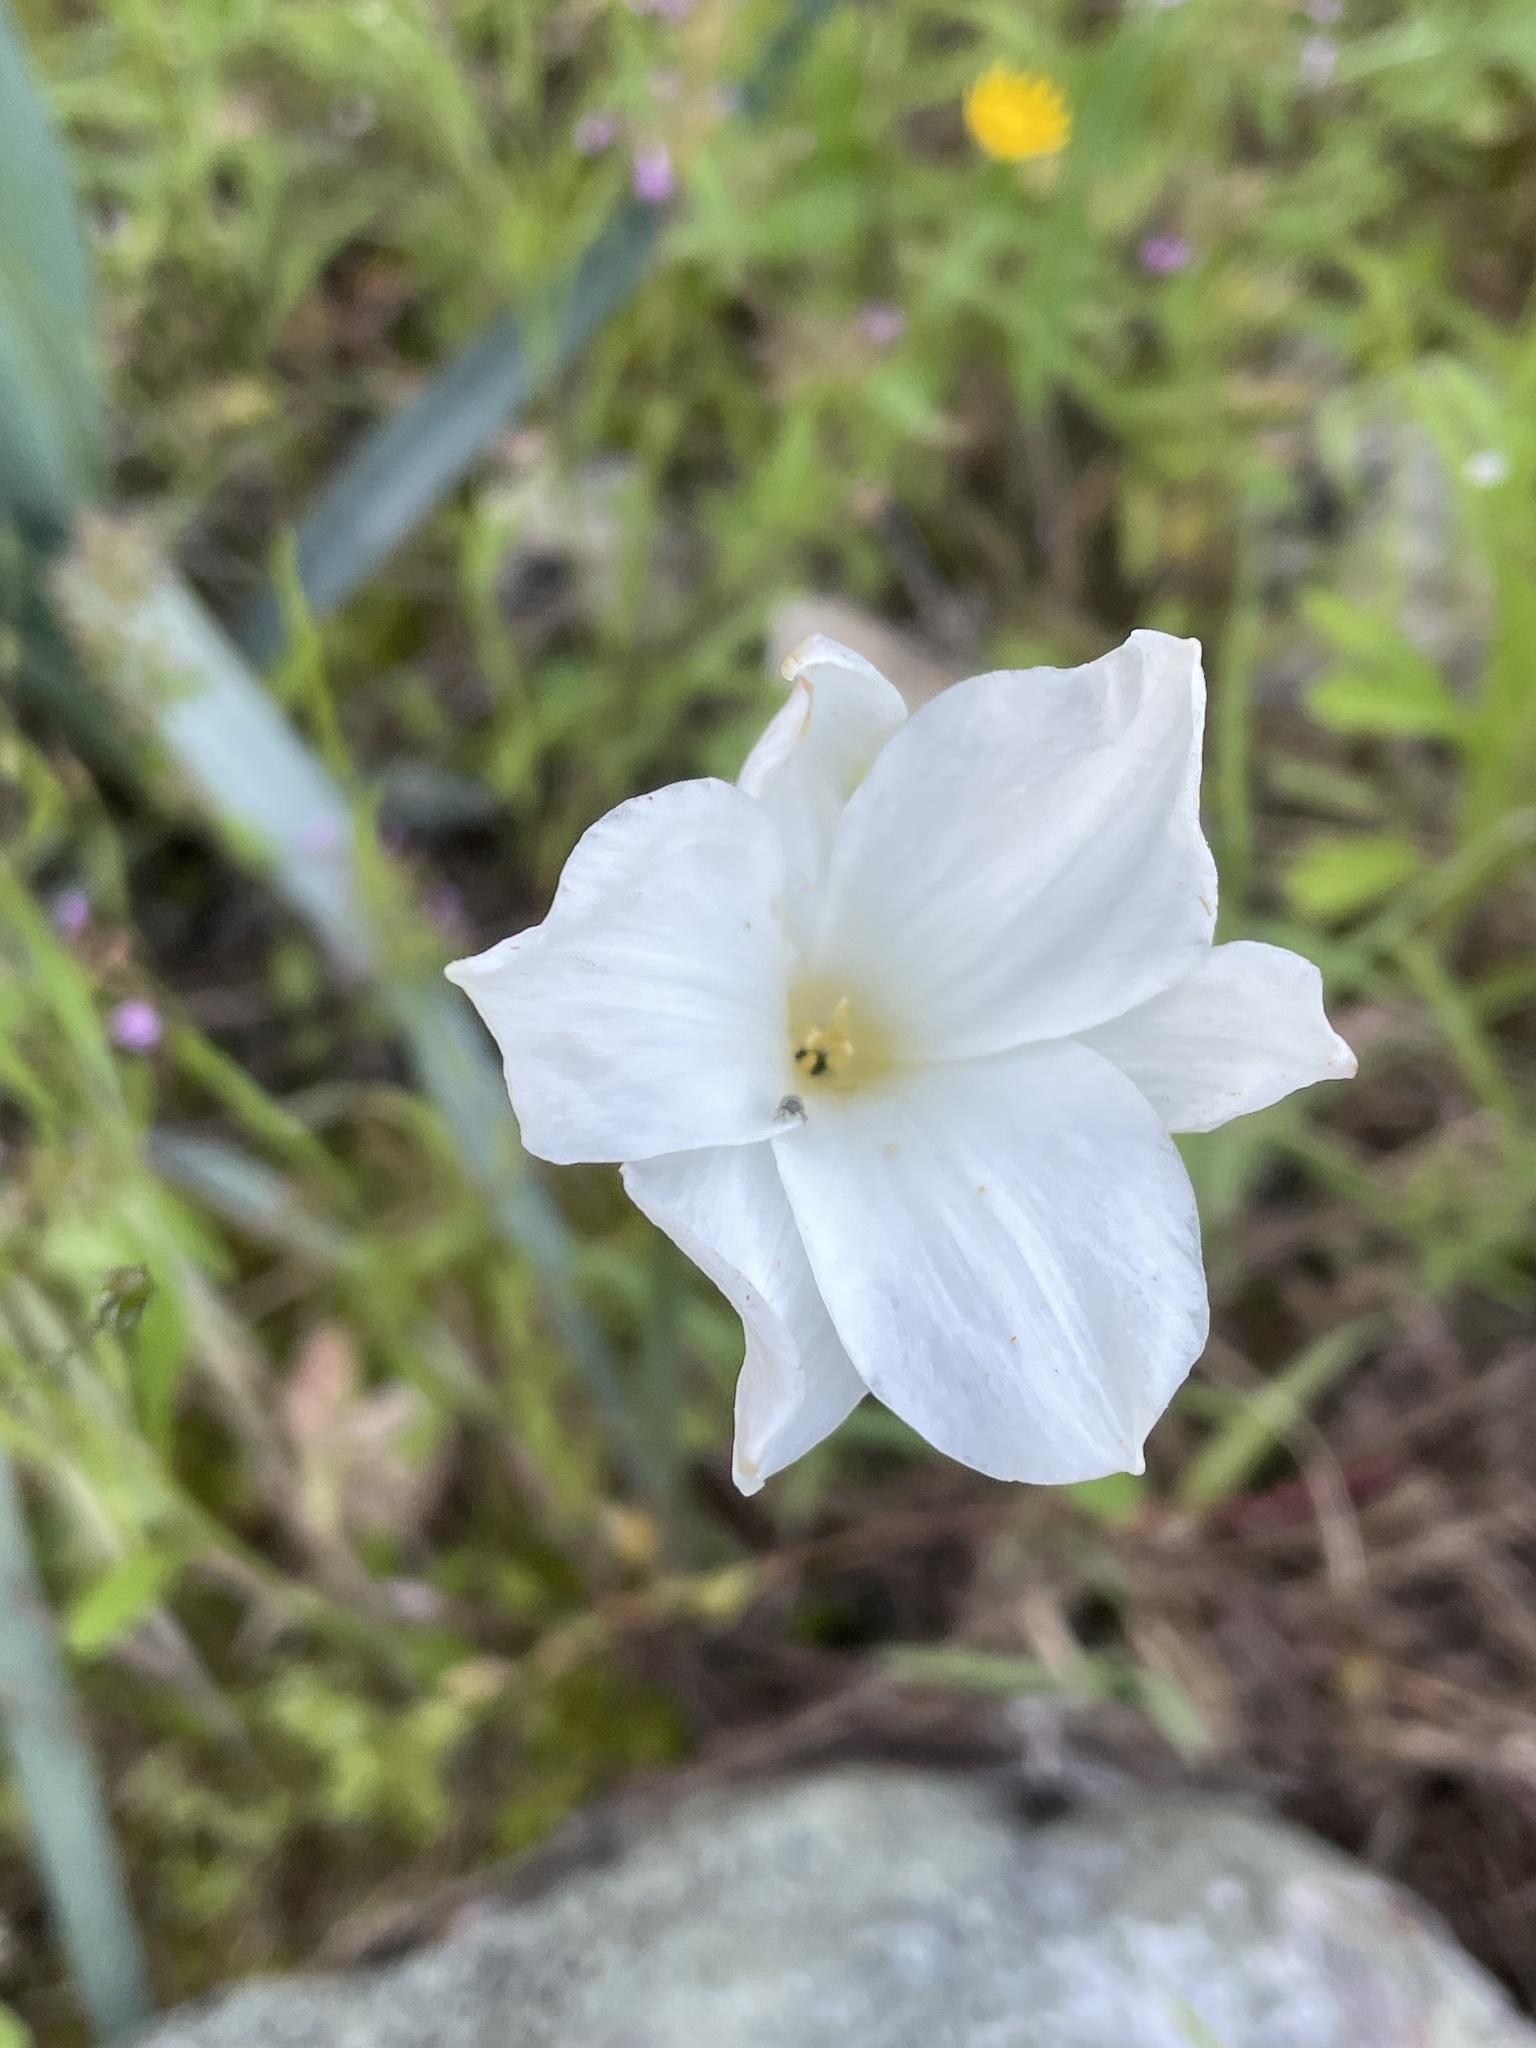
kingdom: Plantae
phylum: Tracheophyta
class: Liliopsida
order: Asparagales
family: Amaryllidaceae
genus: Zephyranthes
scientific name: Zephyranthes drummondii
